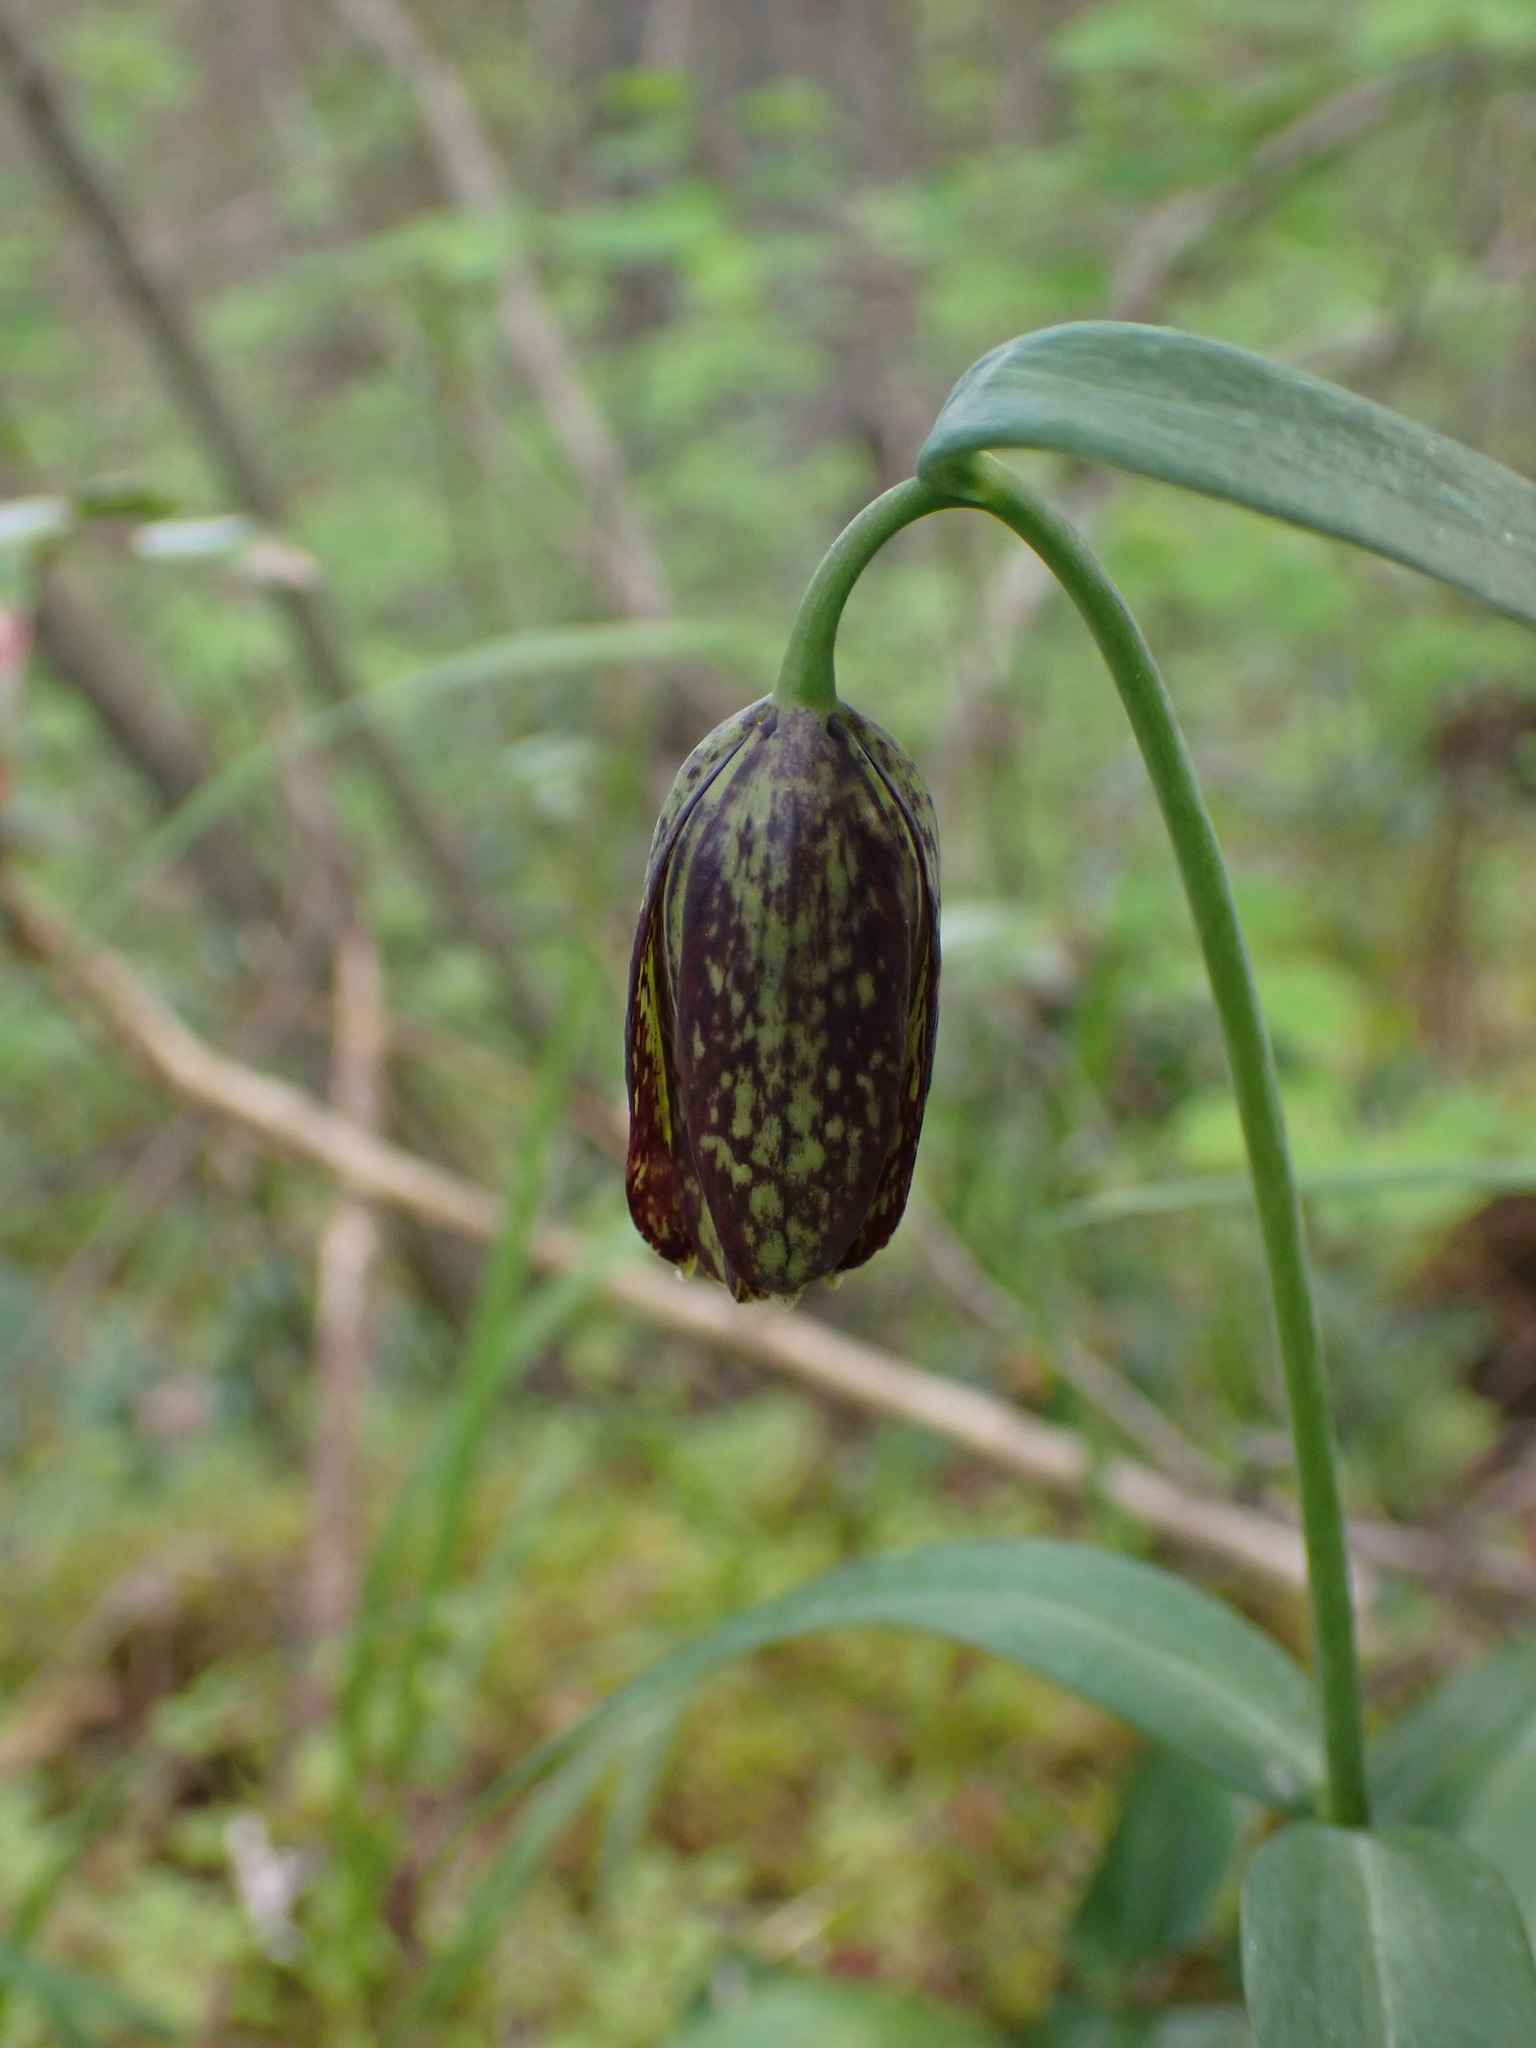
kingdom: Plantae
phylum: Tracheophyta
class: Liliopsida
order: Liliales
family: Liliaceae
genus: Fritillaria
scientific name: Fritillaria affinis
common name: Ojai fritillary
